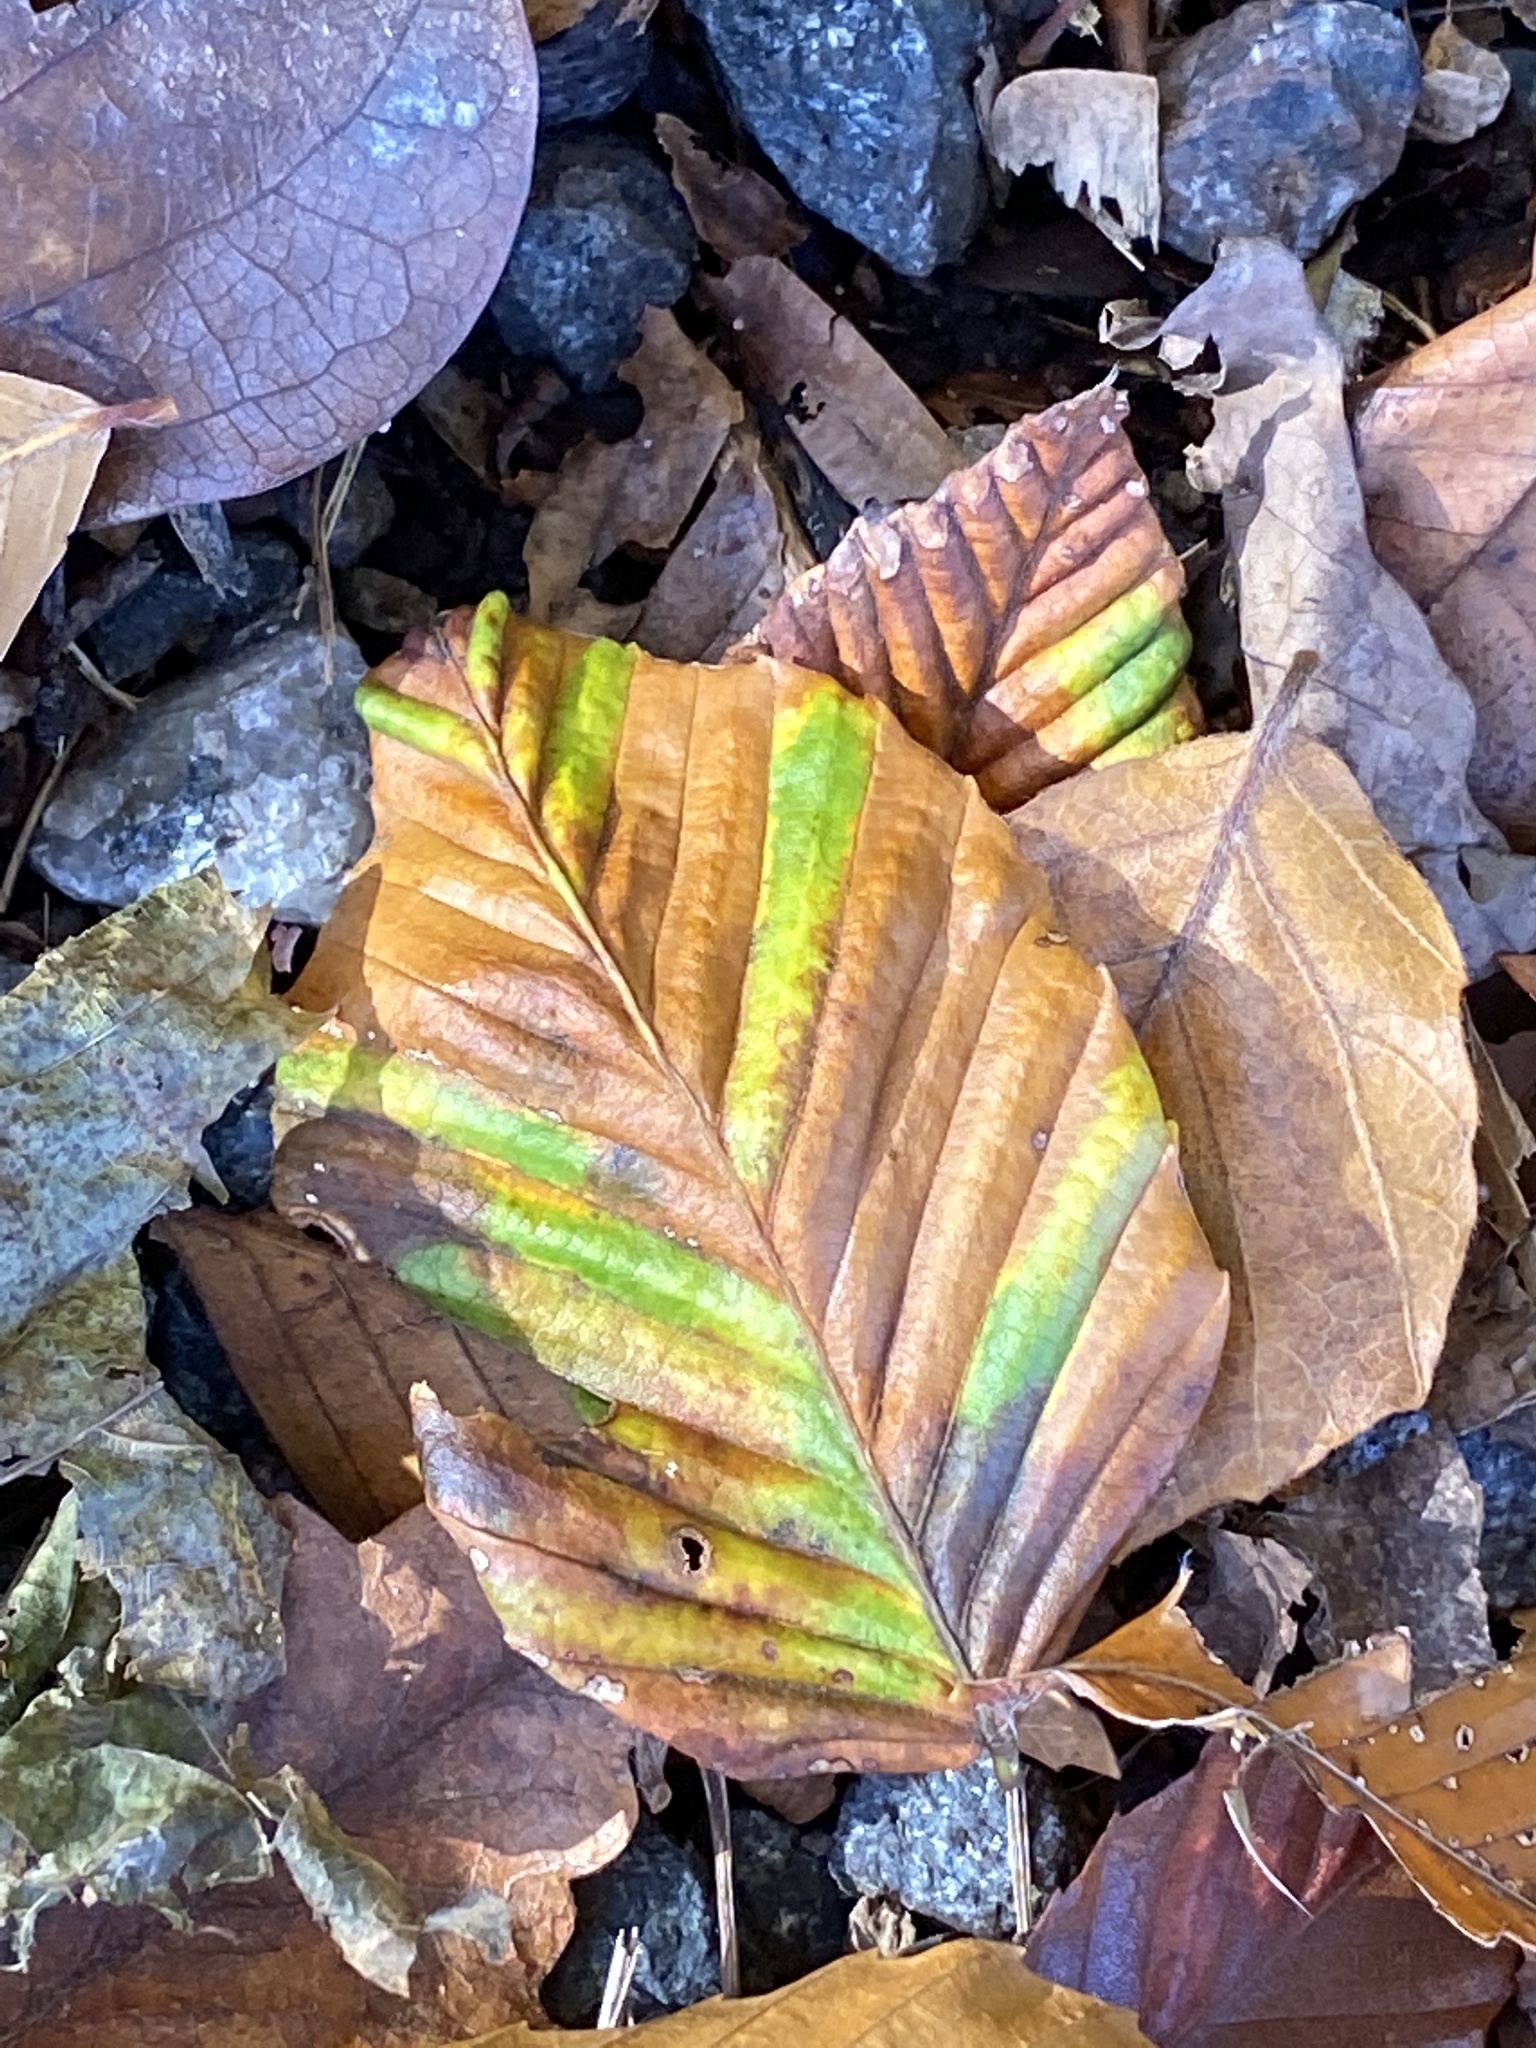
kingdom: Animalia
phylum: Nematoda
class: Chromadorea
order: Rhabditida
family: Anguinidae
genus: Litylenchus
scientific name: Litylenchus crenatae
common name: Beech leaf disease
